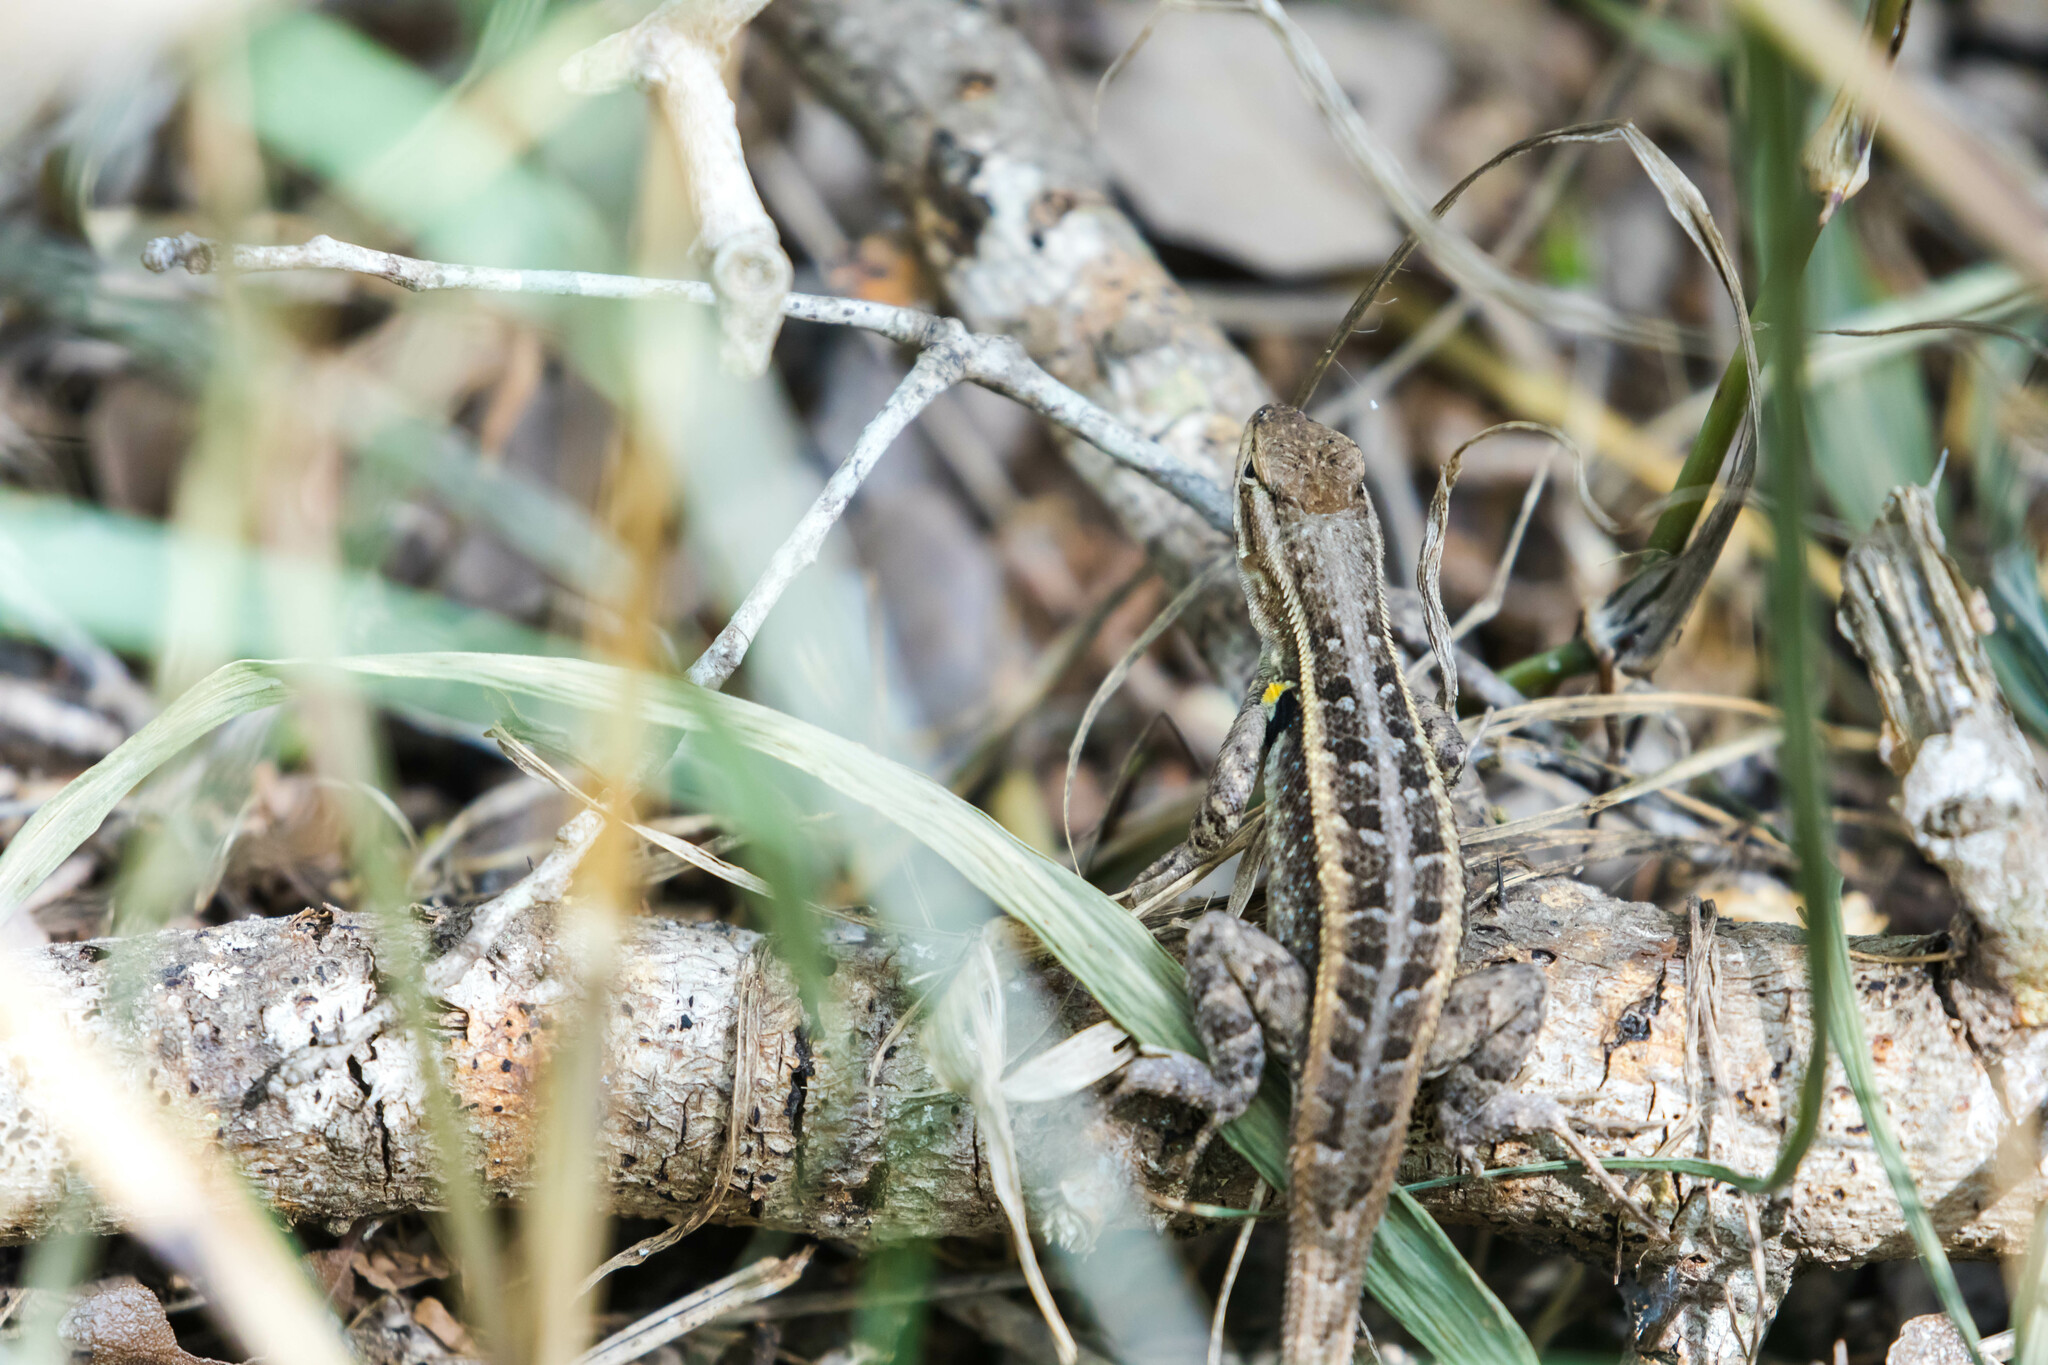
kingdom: Animalia
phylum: Chordata
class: Squamata
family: Phrynosomatidae
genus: Sceloporus
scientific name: Sceloporus variabilis
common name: Rosebelly lizard
